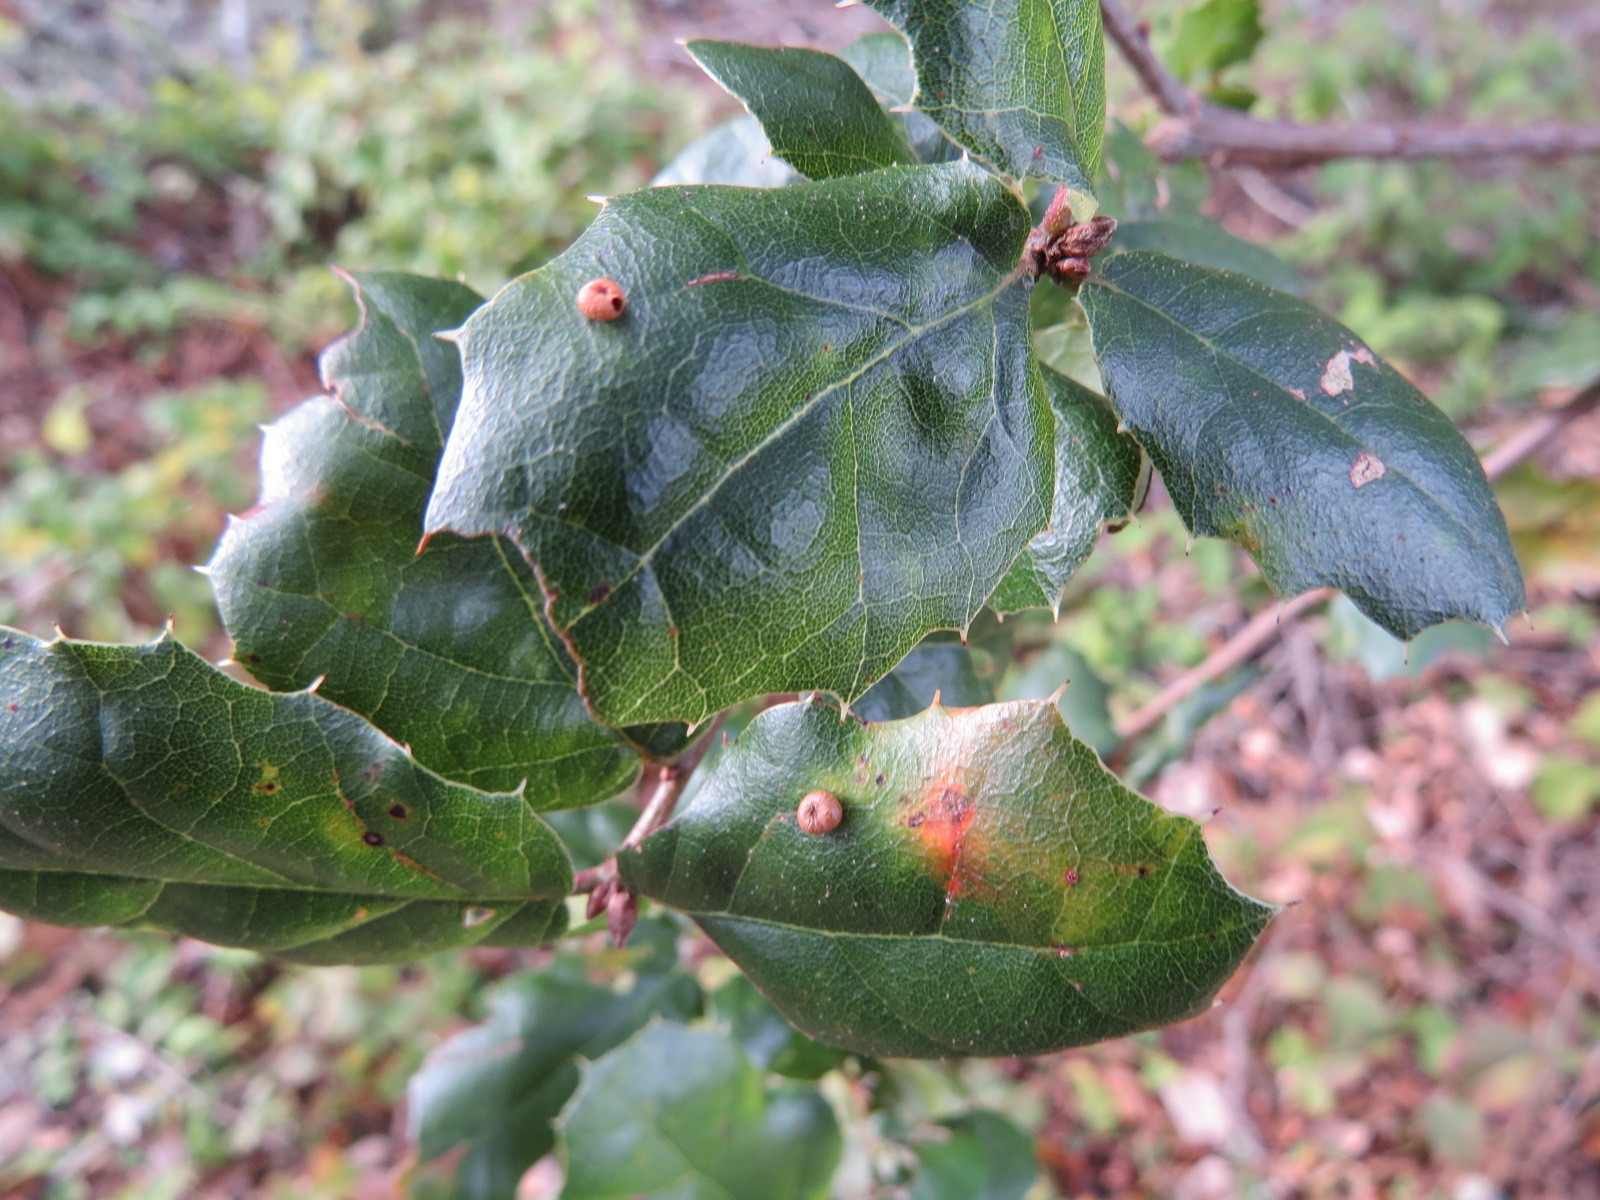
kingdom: Animalia
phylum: Arthropoda
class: Insecta
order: Hymenoptera
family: Cynipidae
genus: Dryocosmus
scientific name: Dryocosmus
